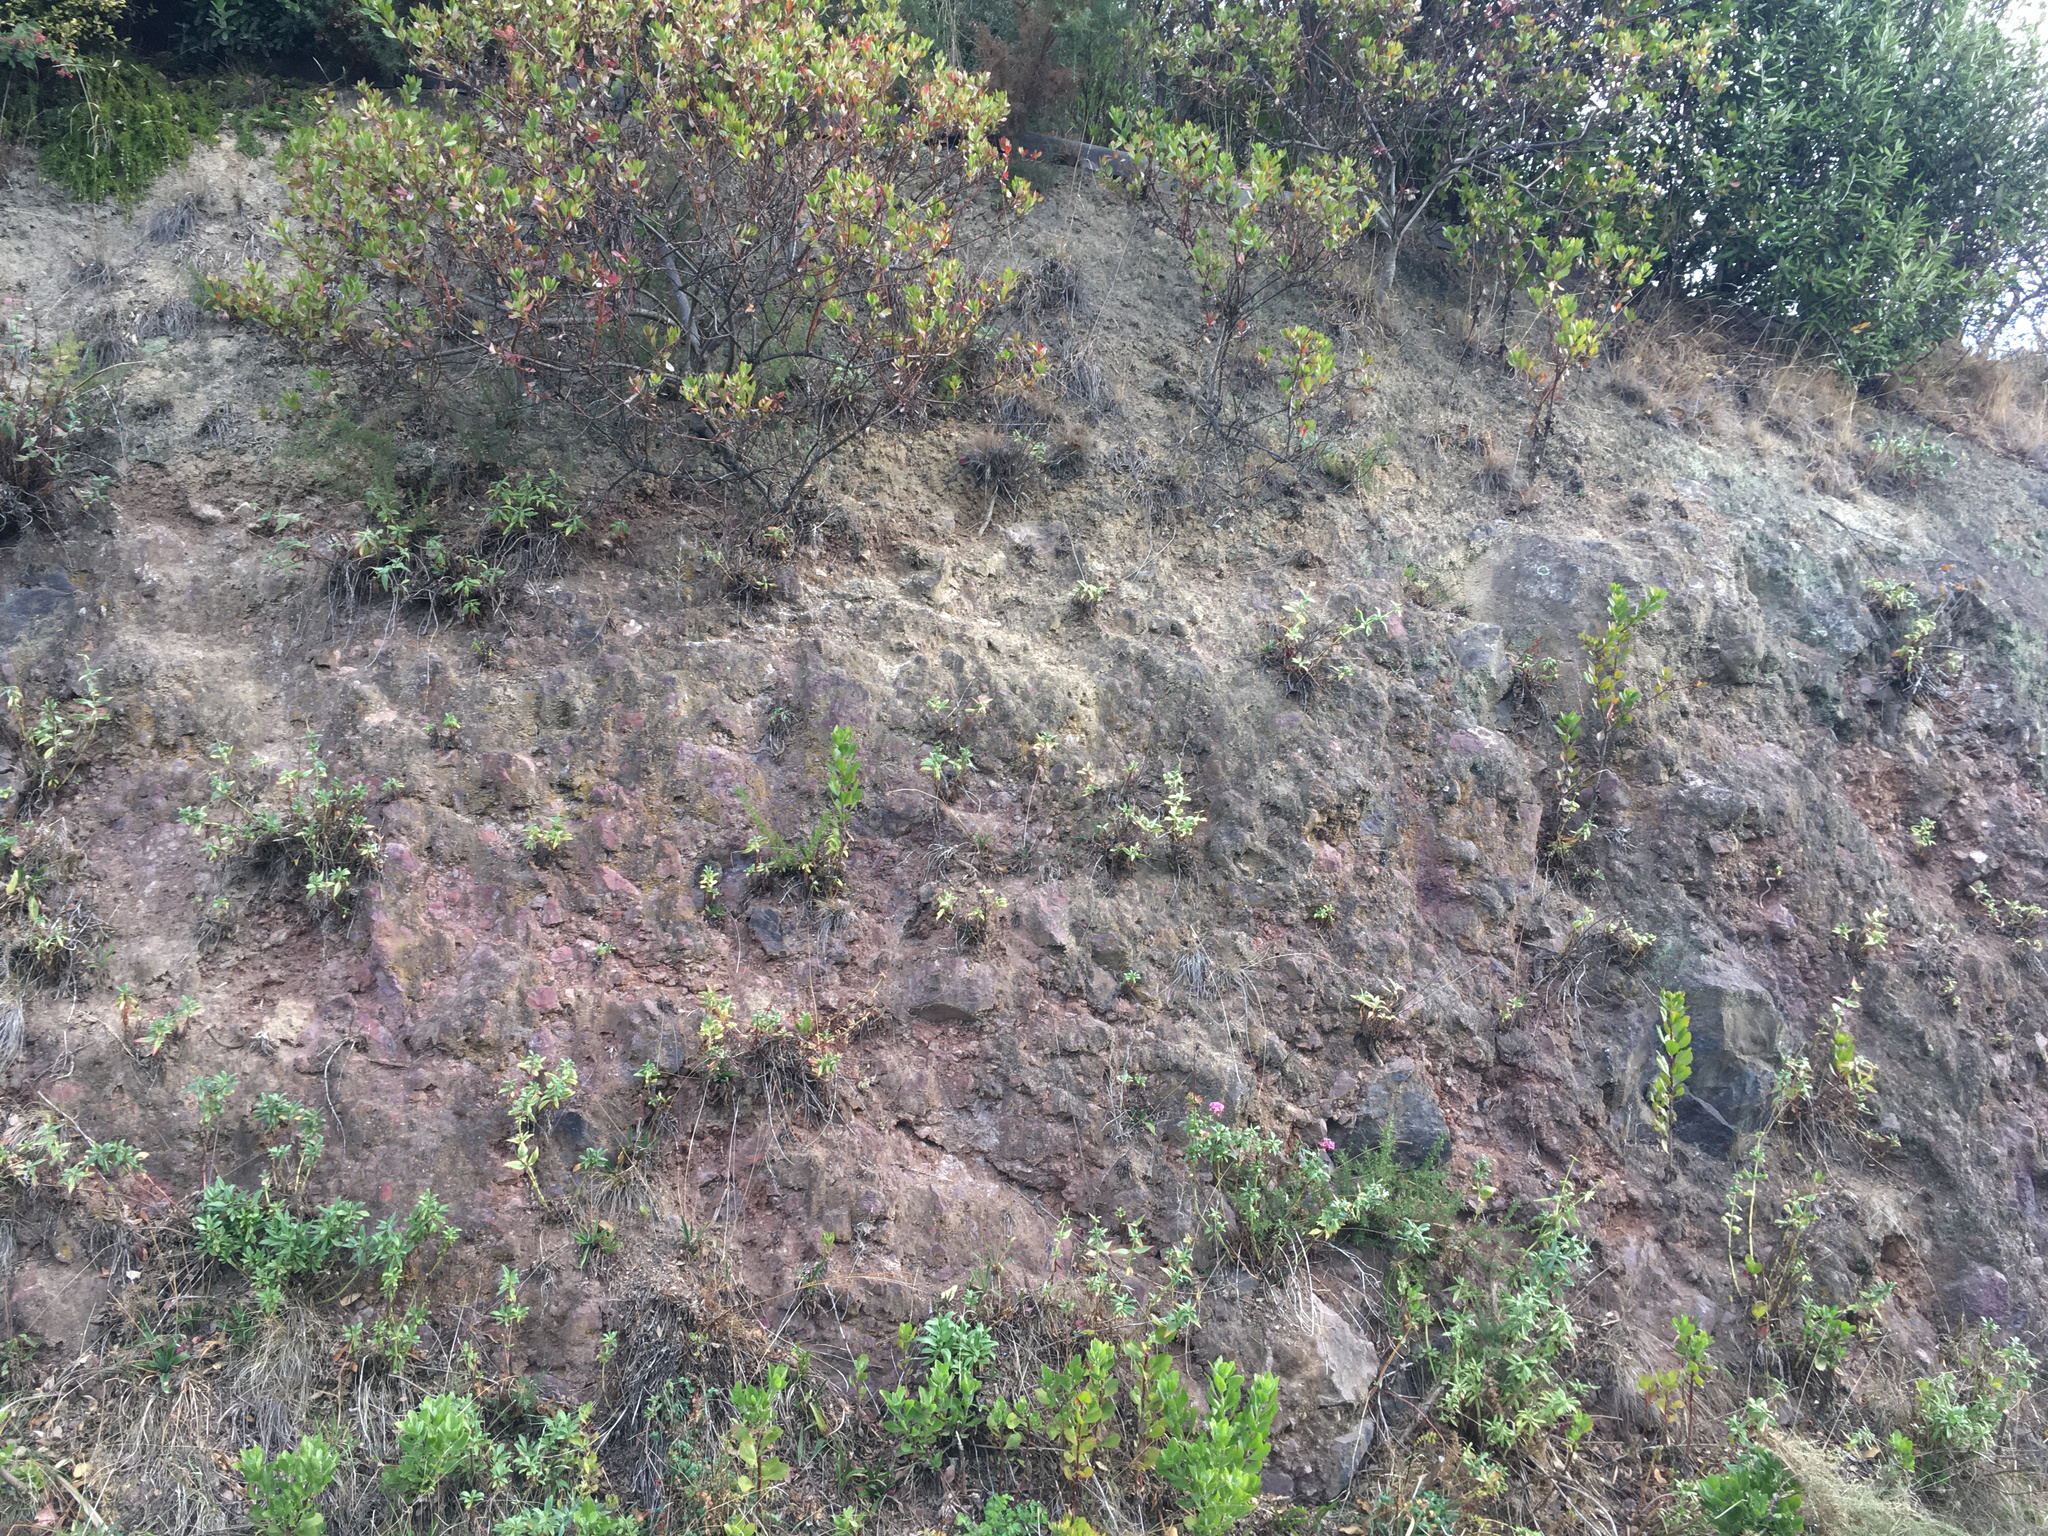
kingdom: Plantae
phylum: Tracheophyta
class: Magnoliopsida
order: Asterales
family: Asteraceae
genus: Osteospermum
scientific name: Osteospermum moniliferum
